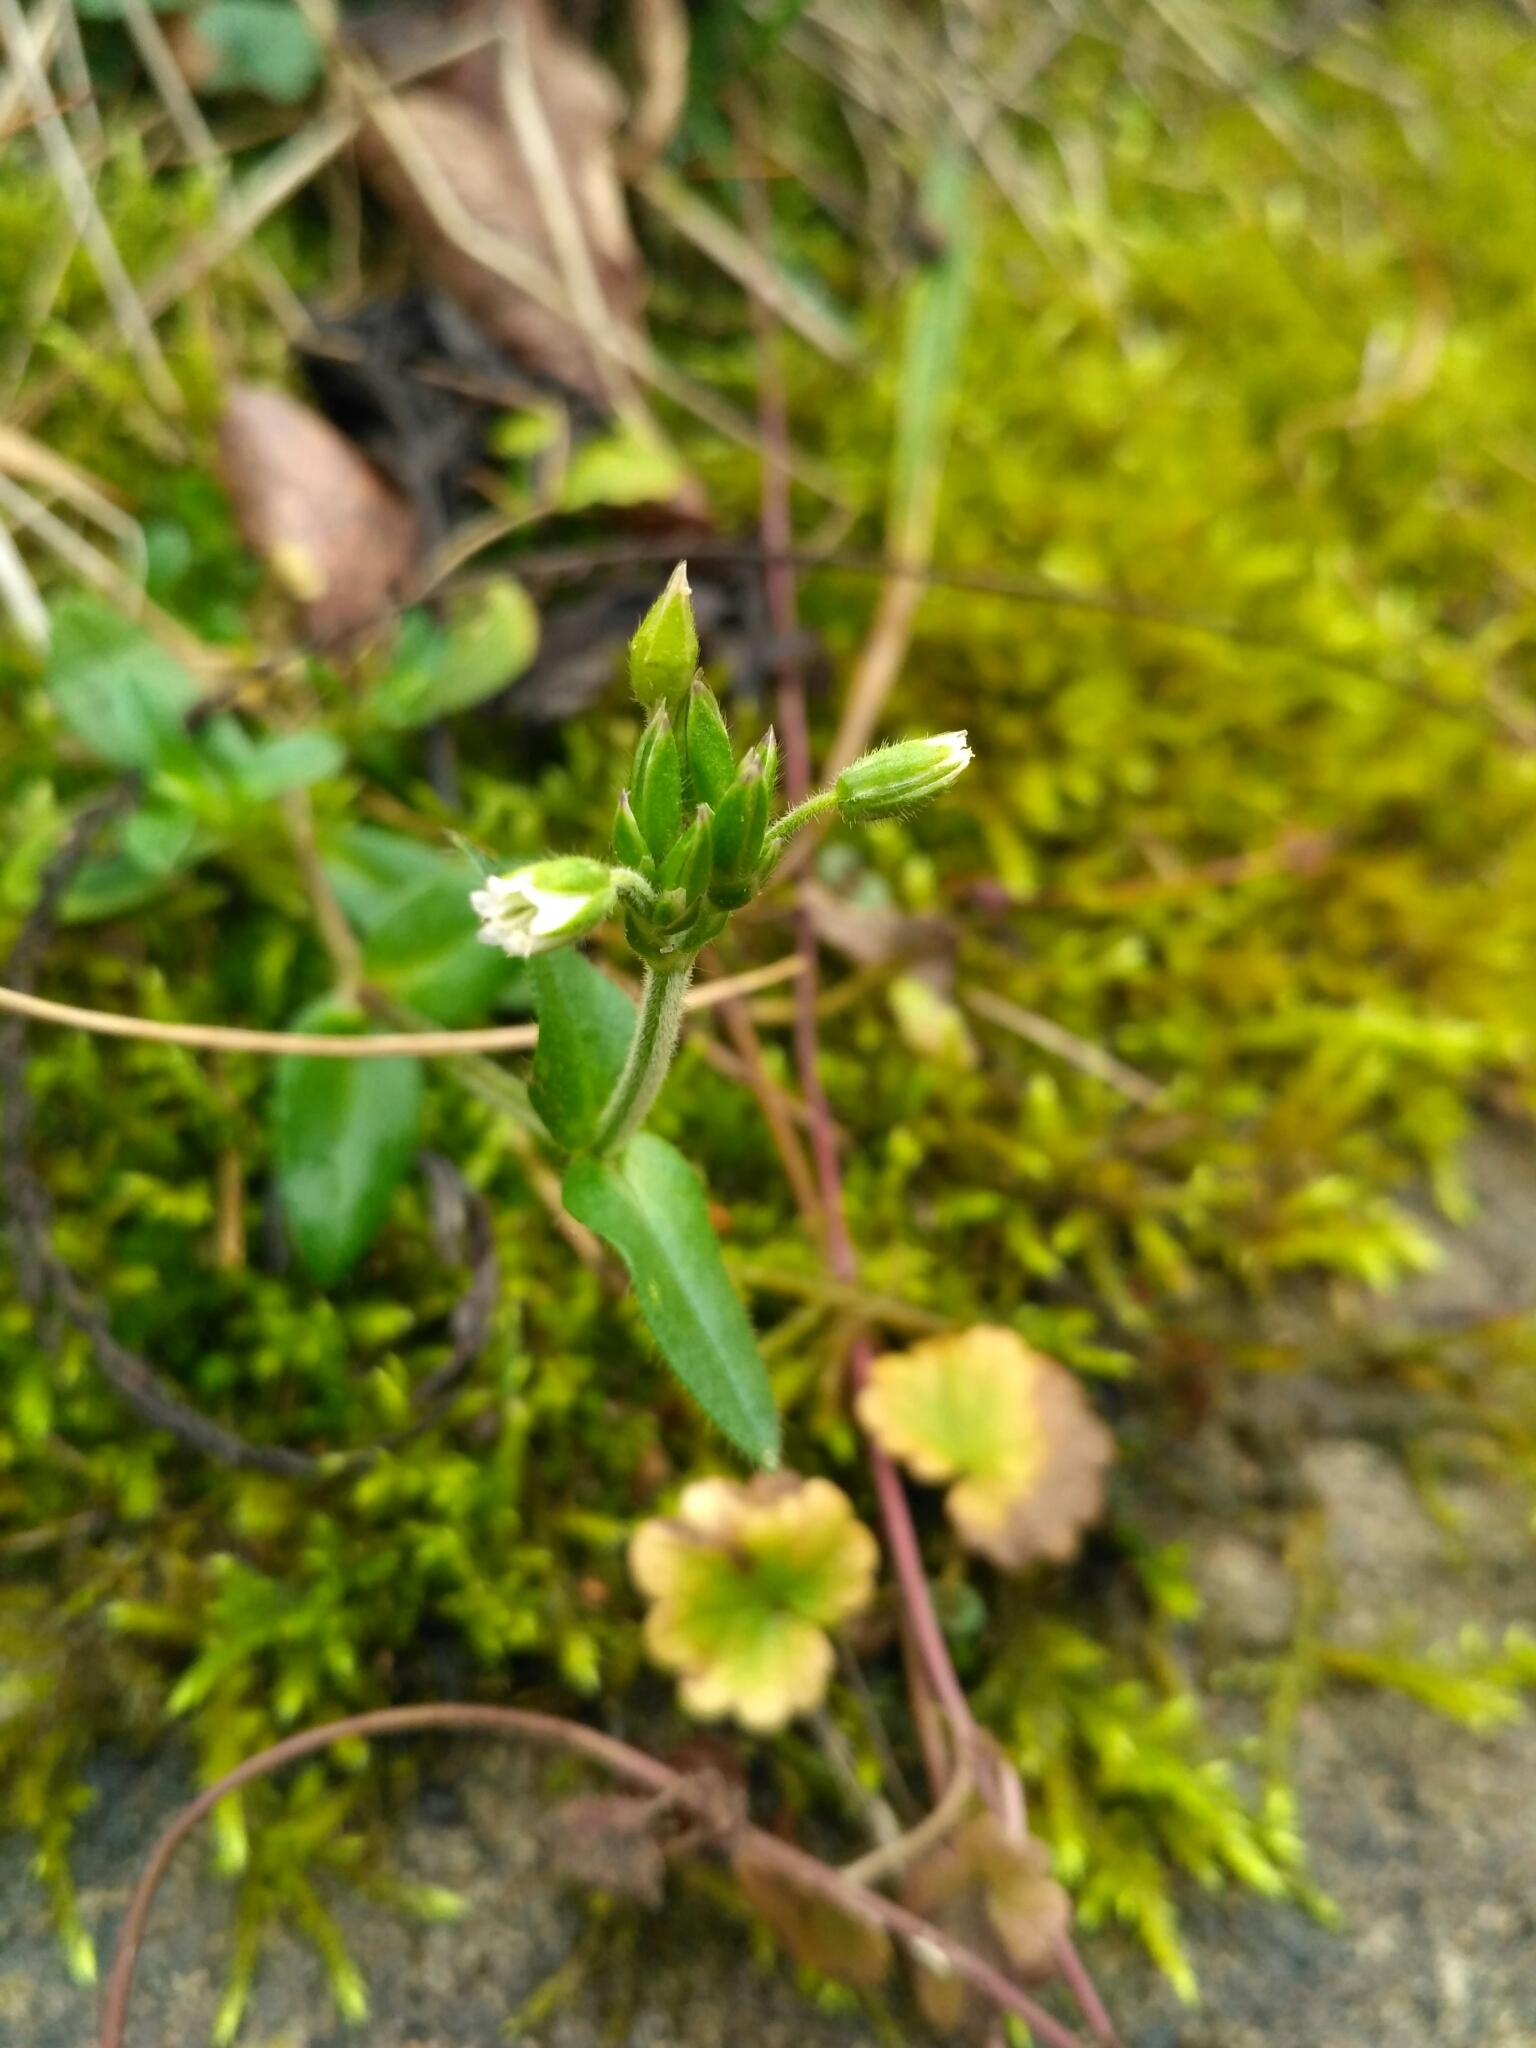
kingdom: Plantae
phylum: Tracheophyta
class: Magnoliopsida
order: Caryophyllales
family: Caryophyllaceae
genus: Cerastium
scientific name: Cerastium holosteoides
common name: Big chickweed
